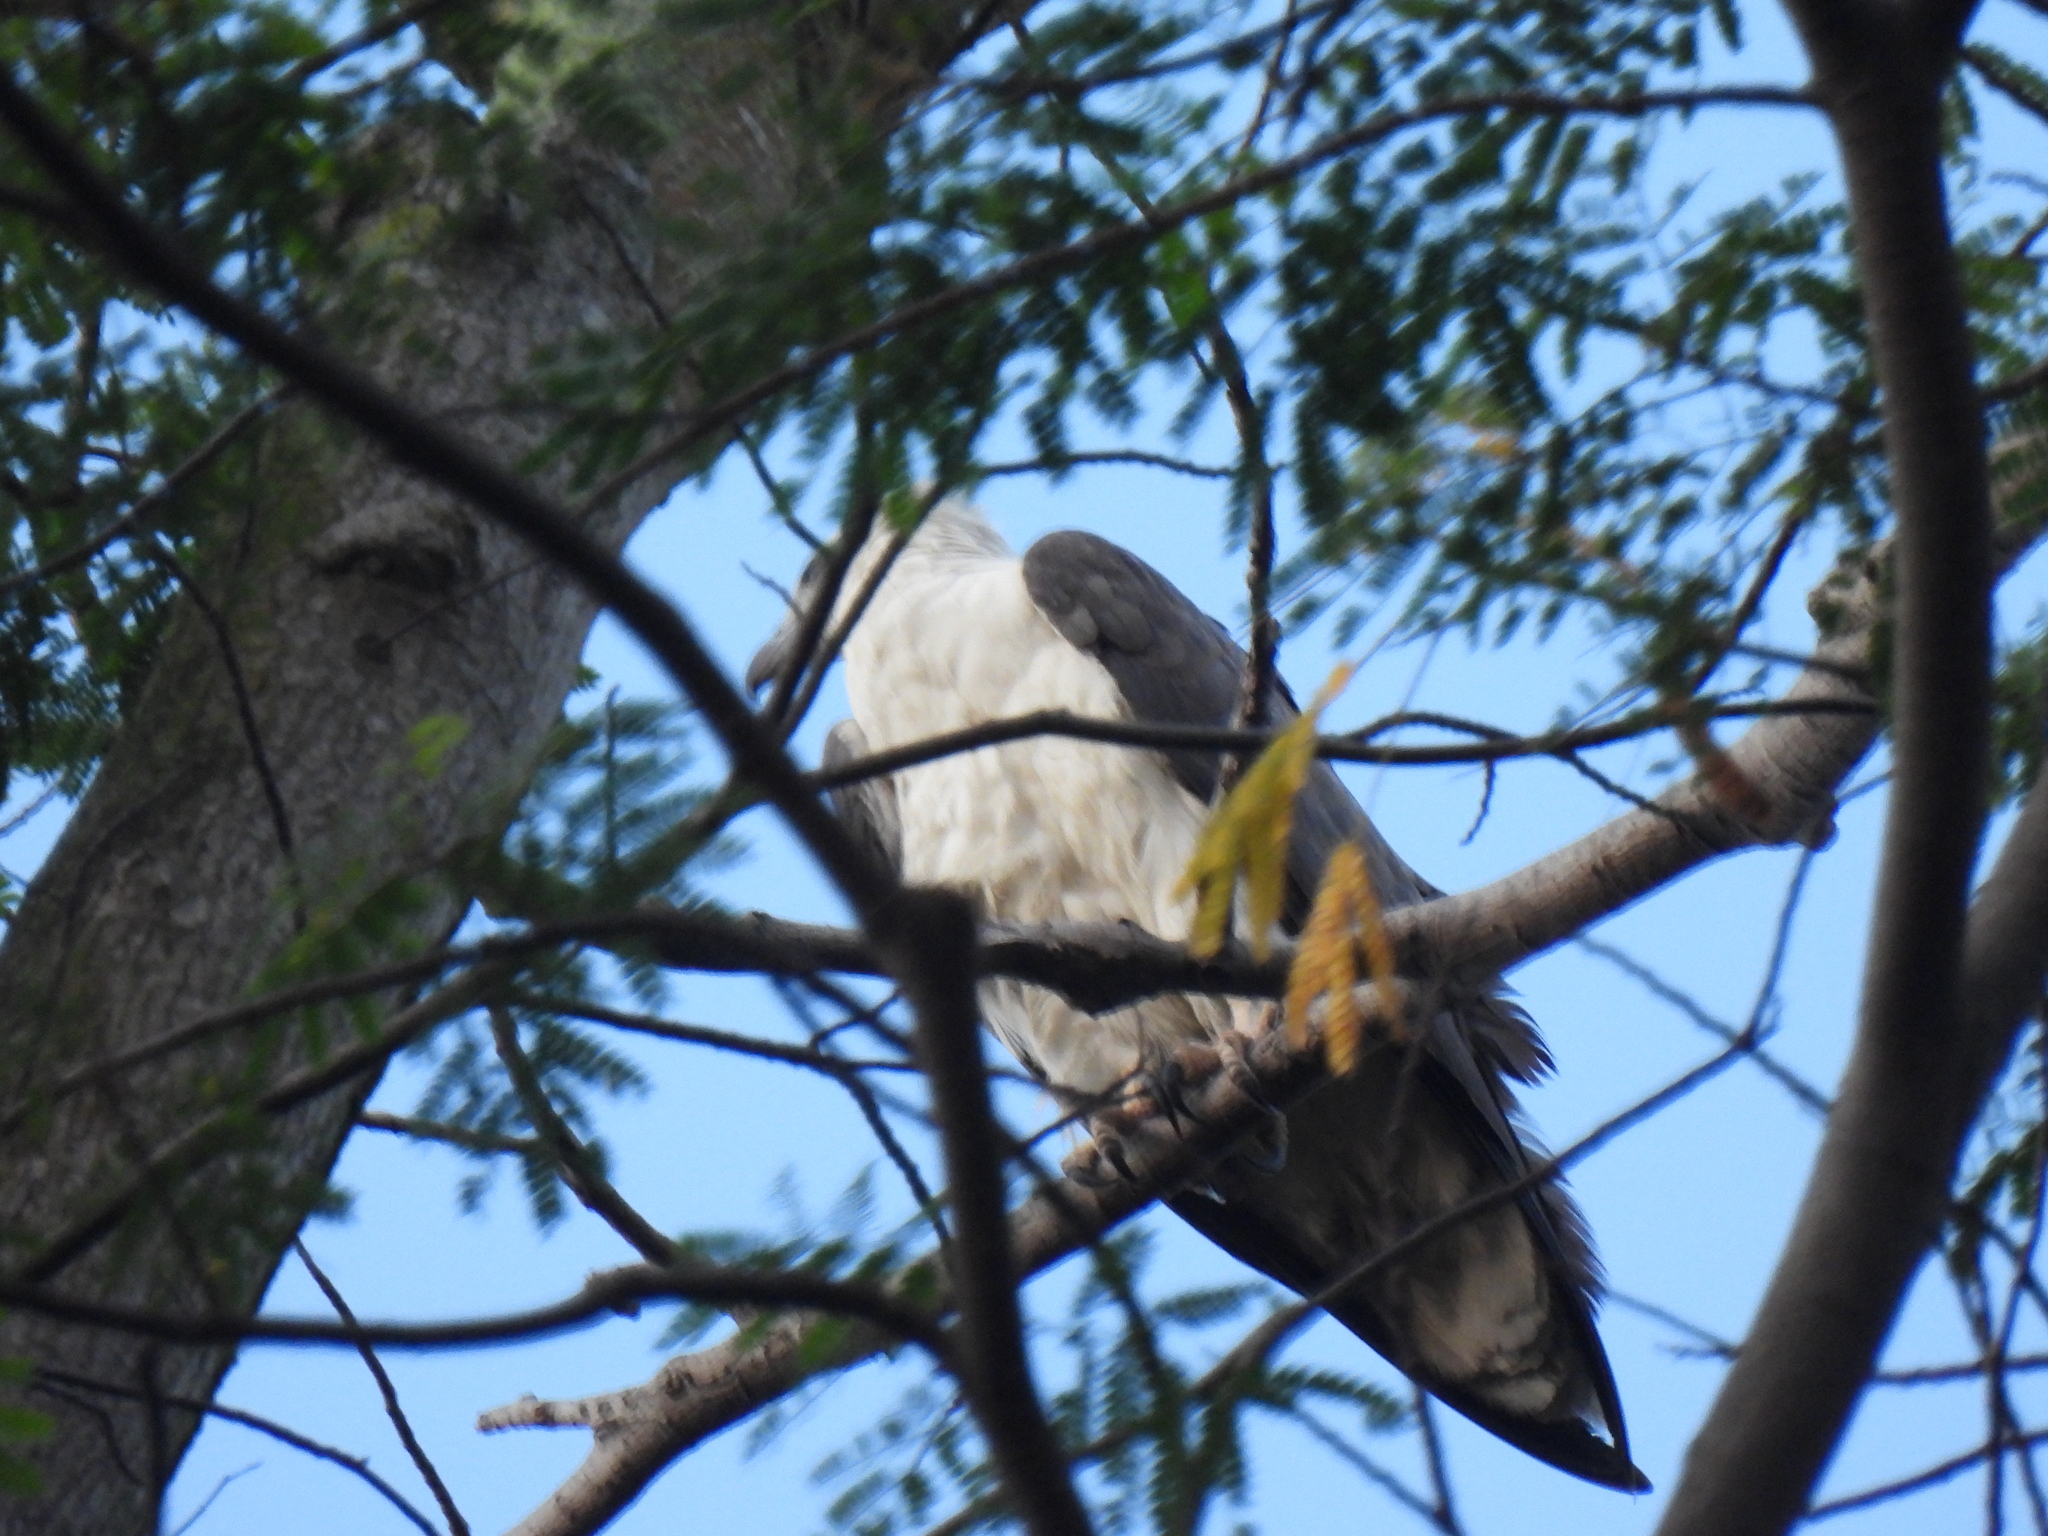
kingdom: Animalia
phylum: Chordata
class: Aves
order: Accipitriformes
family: Accipitridae
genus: Haliaeetus
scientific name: Haliaeetus leucogaster
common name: White-bellied sea eagle
